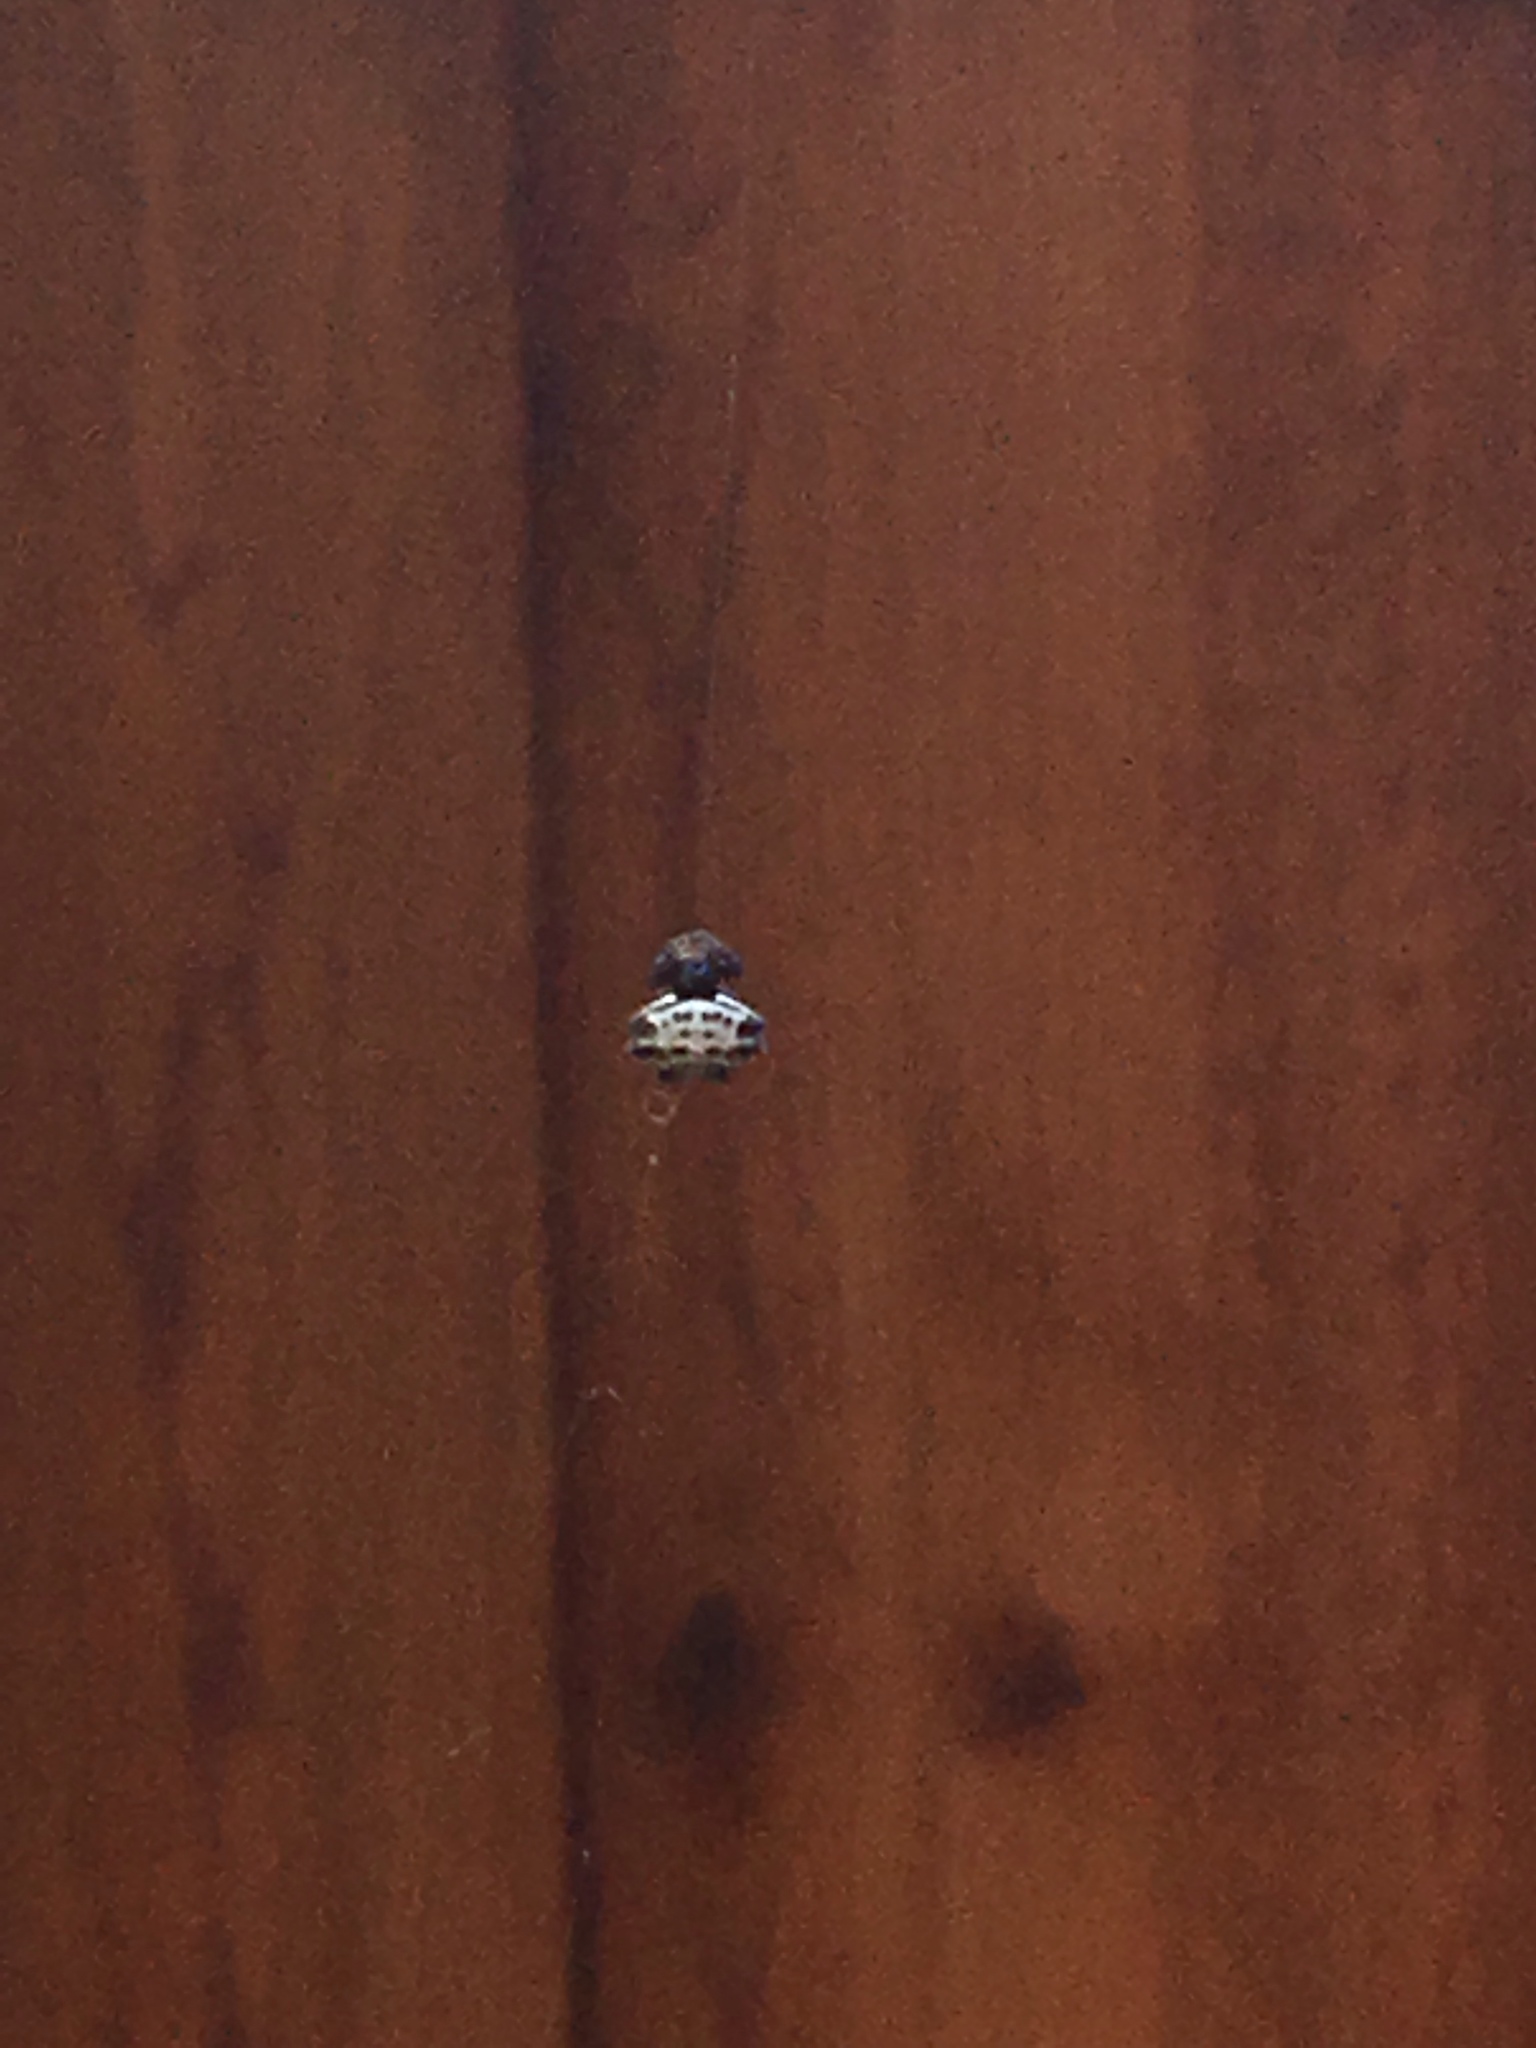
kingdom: Animalia
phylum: Arthropoda
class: Arachnida
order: Araneae
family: Araneidae
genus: Gasteracantha
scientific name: Gasteracantha cancriformis
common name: Orb weavers
